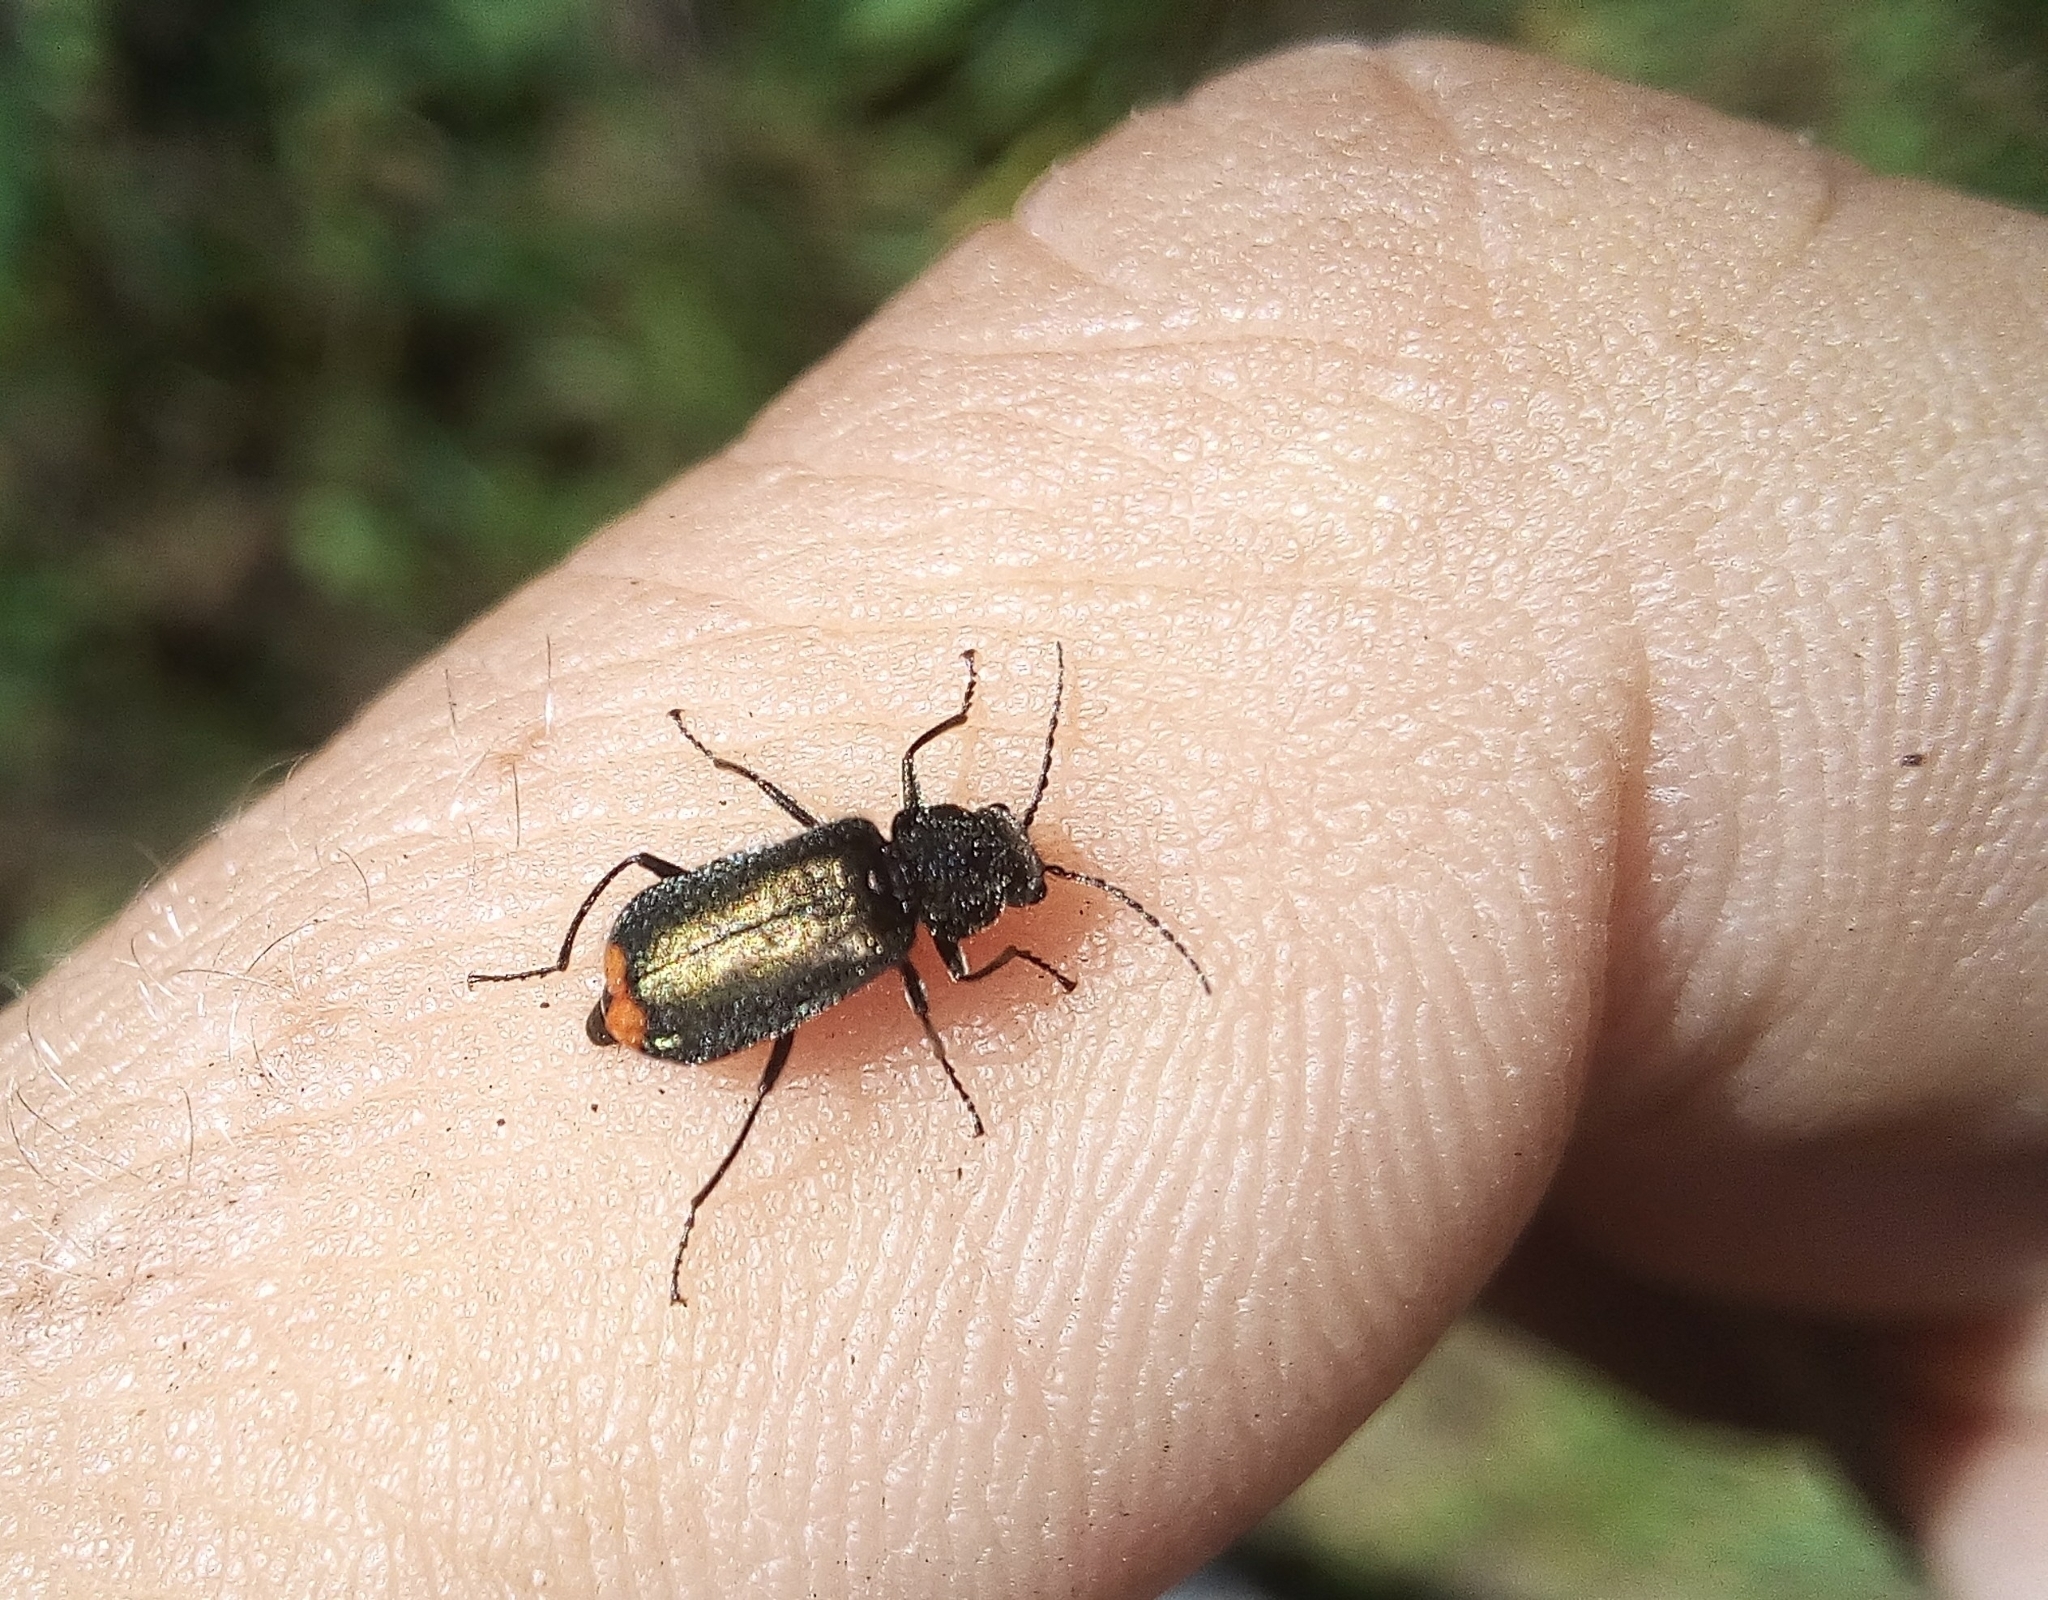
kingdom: Animalia
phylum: Arthropoda
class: Insecta
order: Coleoptera
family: Melyridae
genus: Malachius
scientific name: Malachius bipustulatus
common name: Malachite beetle
